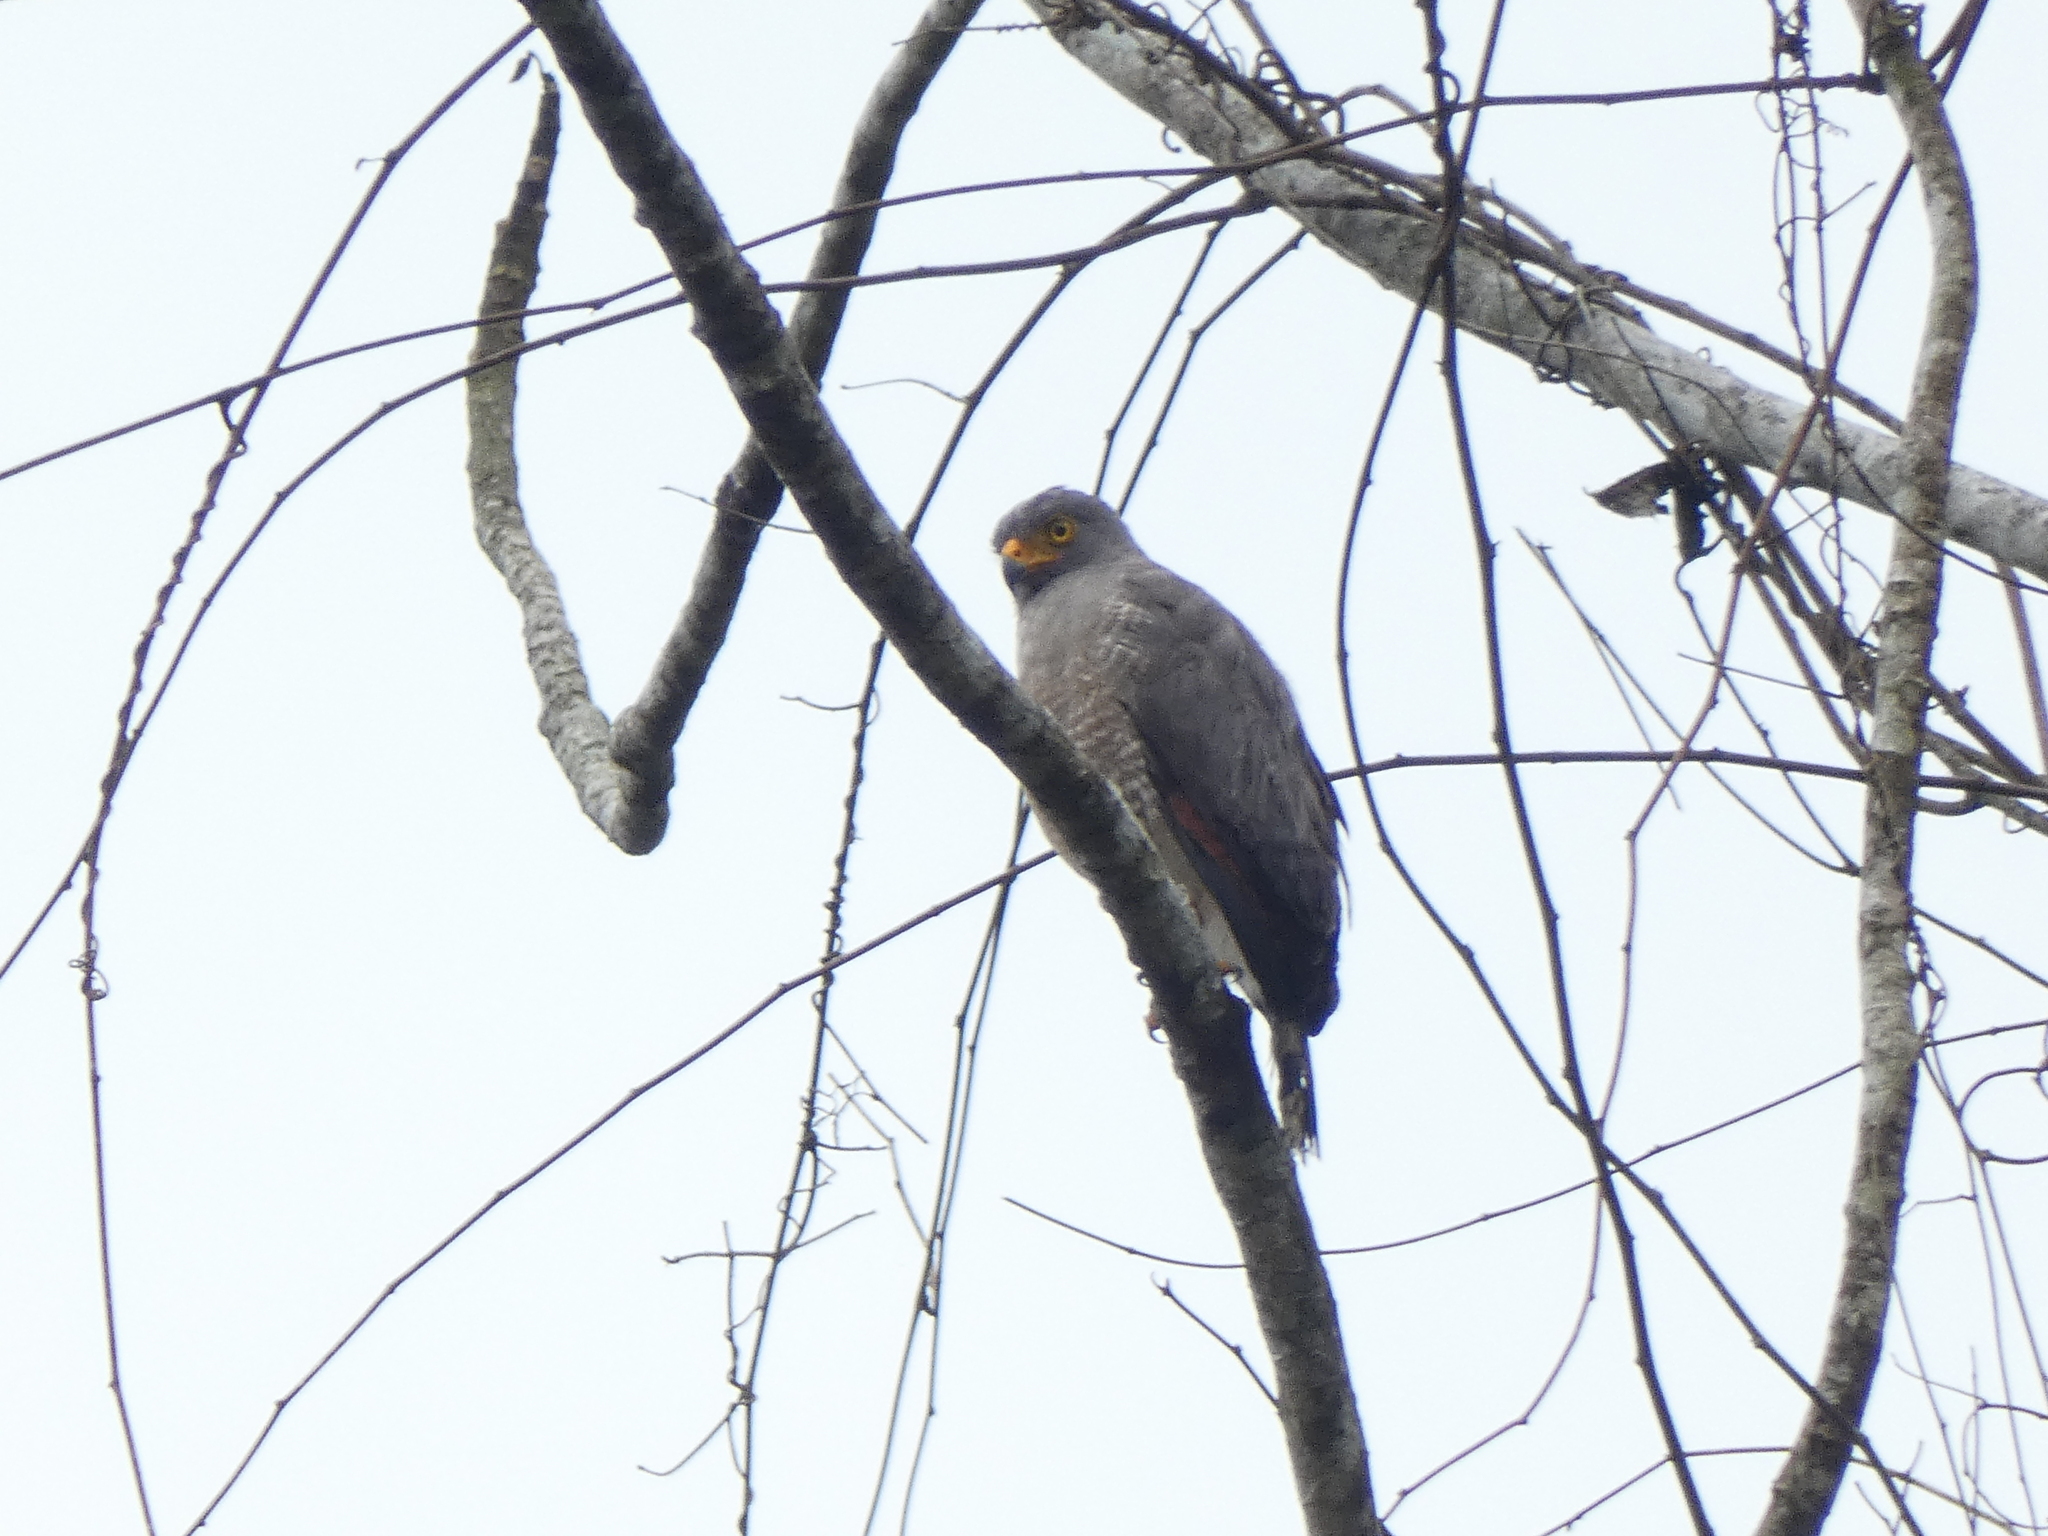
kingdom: Animalia
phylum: Chordata
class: Aves
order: Accipitriformes
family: Accipitridae
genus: Rupornis
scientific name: Rupornis magnirostris
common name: Roadside hawk
